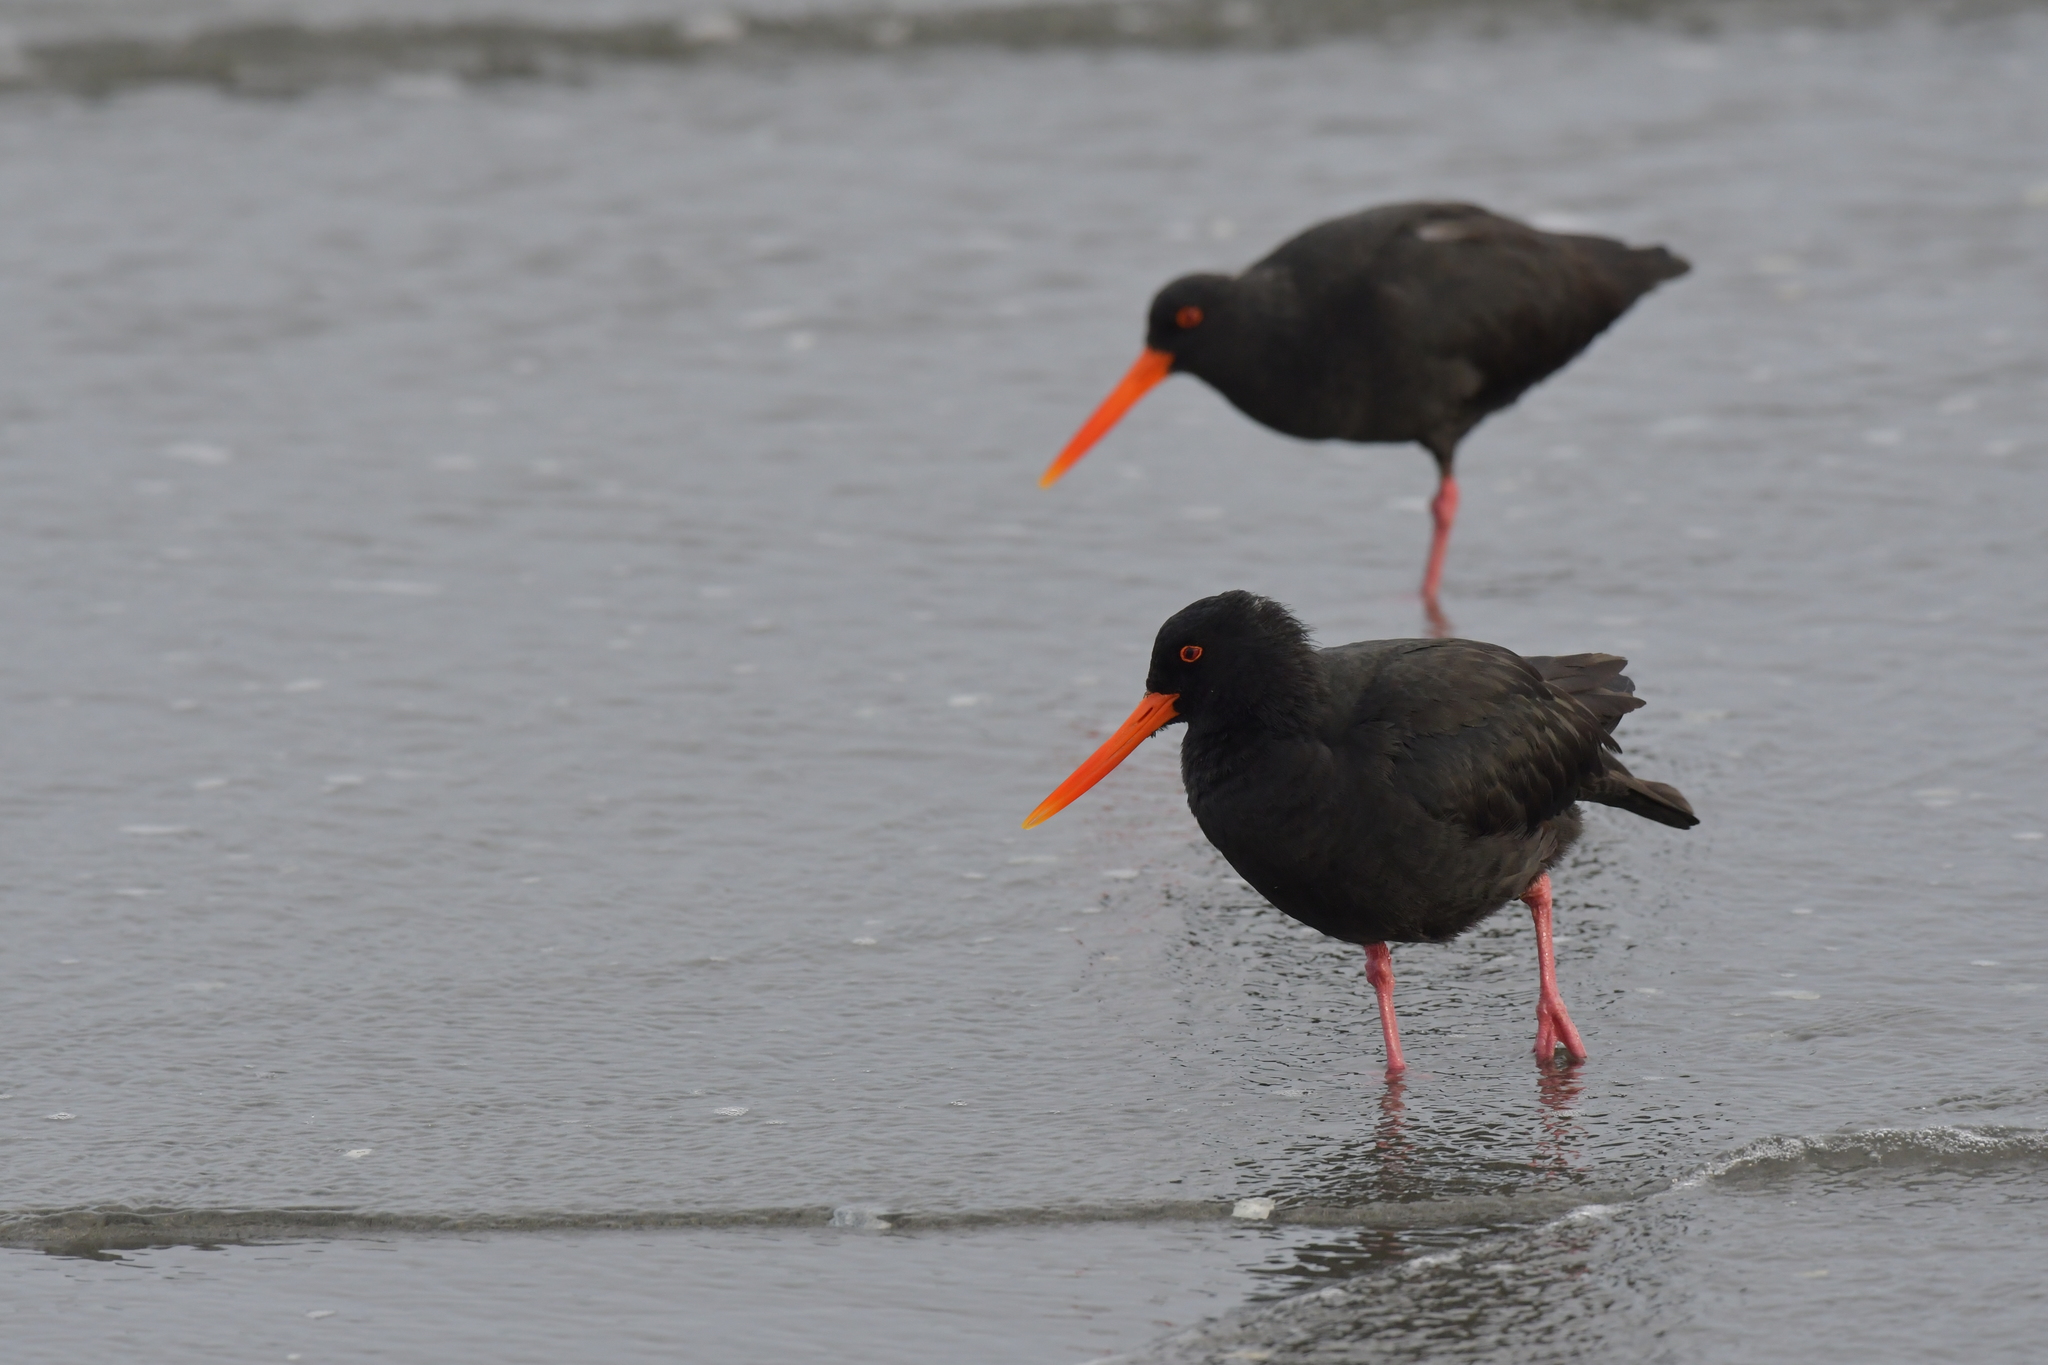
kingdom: Animalia
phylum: Chordata
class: Aves
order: Charadriiformes
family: Haematopodidae
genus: Haematopus
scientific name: Haematopus unicolor
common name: Variable oystercatcher
